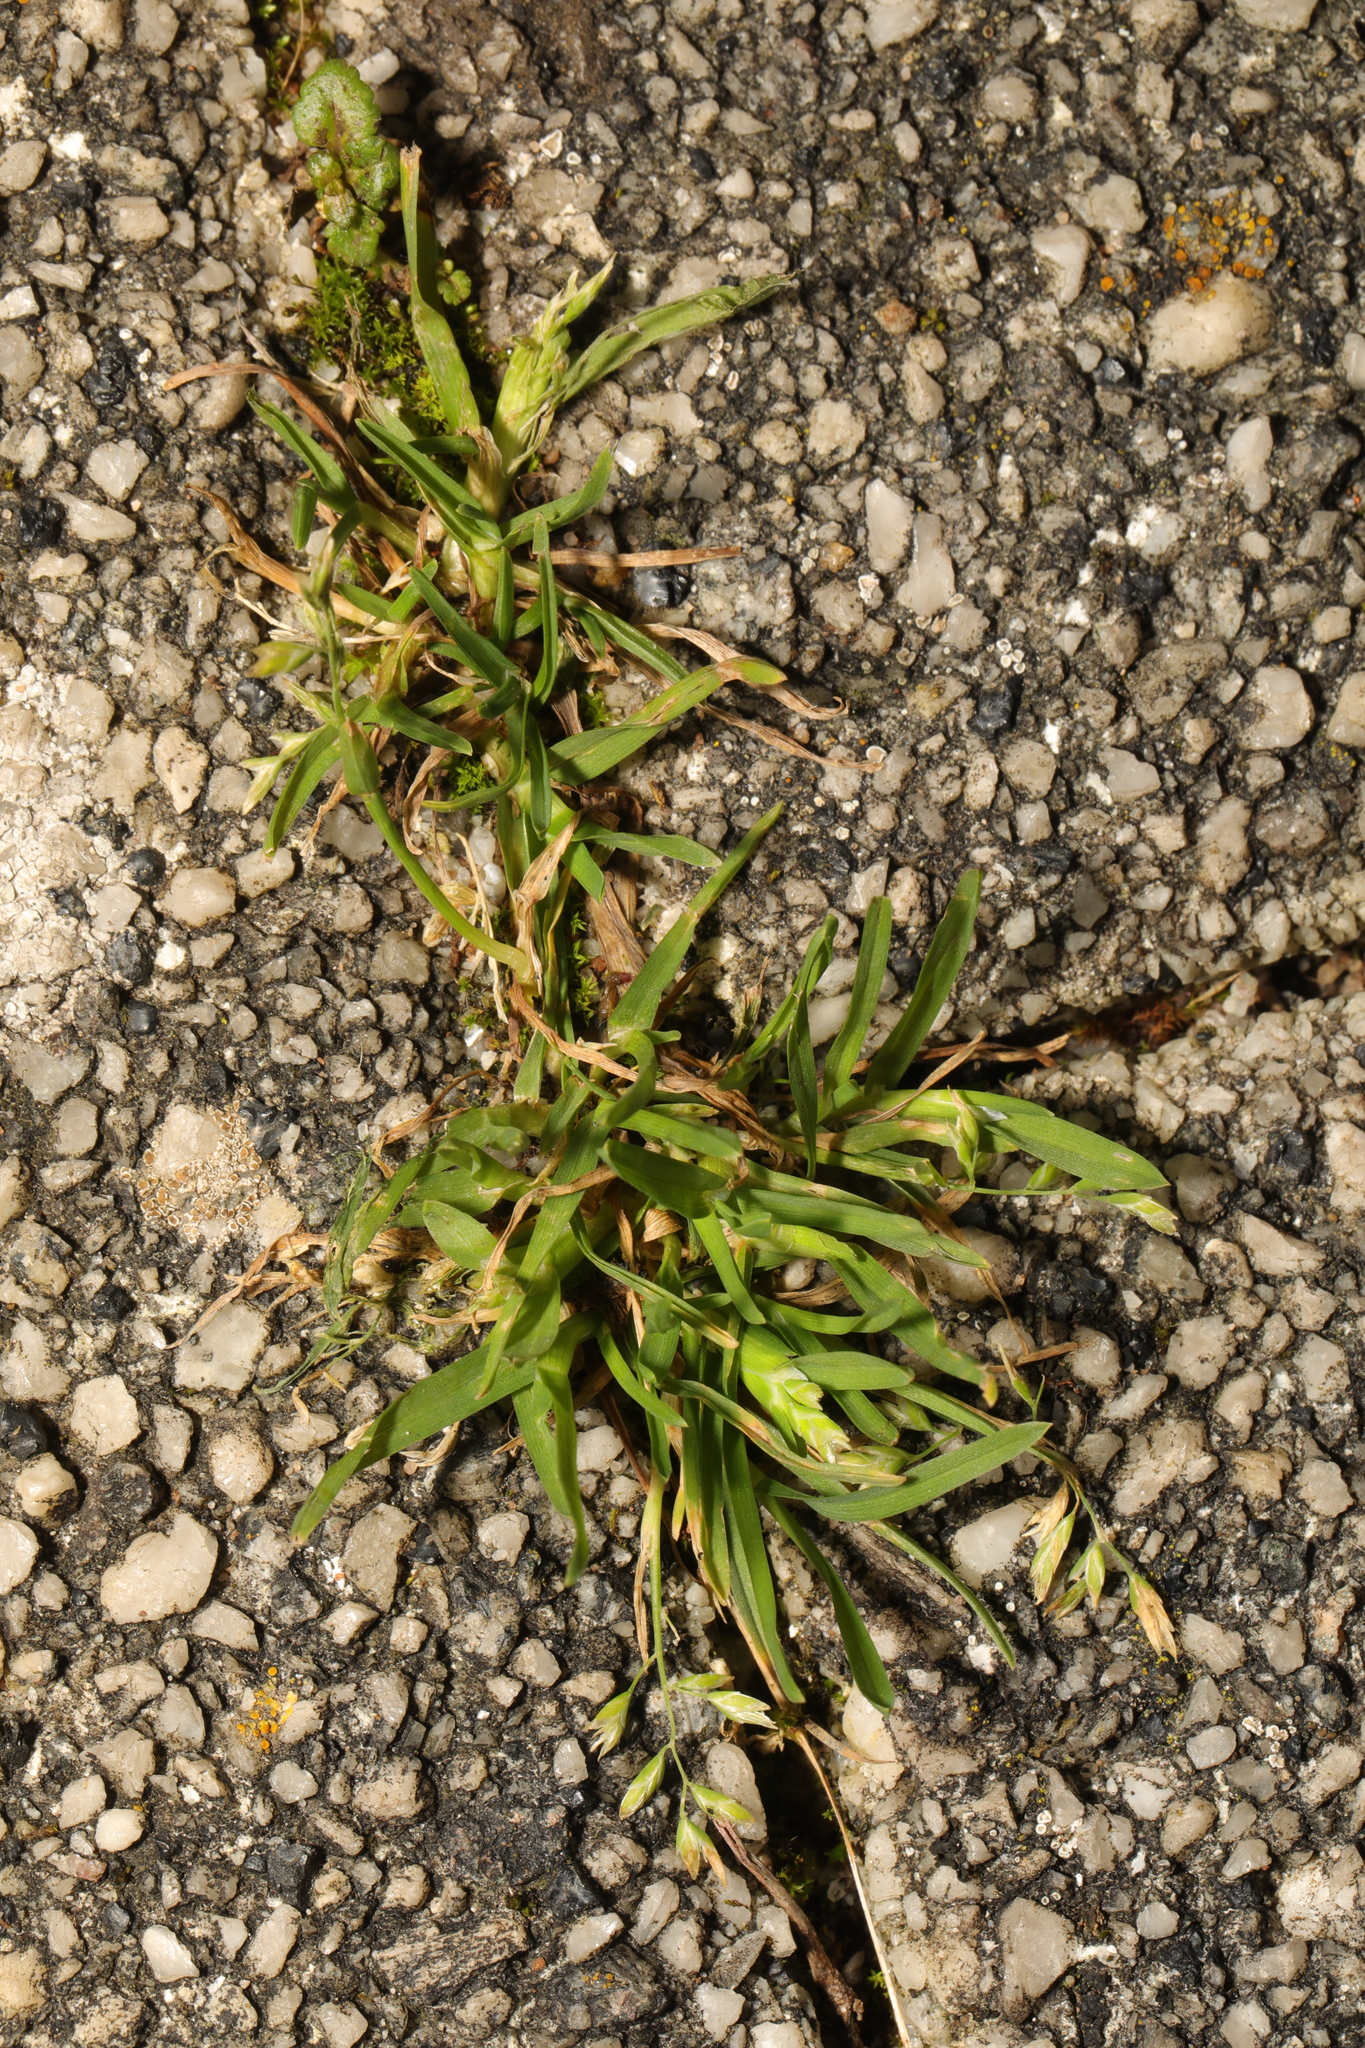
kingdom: Plantae
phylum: Tracheophyta
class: Liliopsida
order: Poales
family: Poaceae
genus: Poa
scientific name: Poa annua
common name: Annual bluegrass
